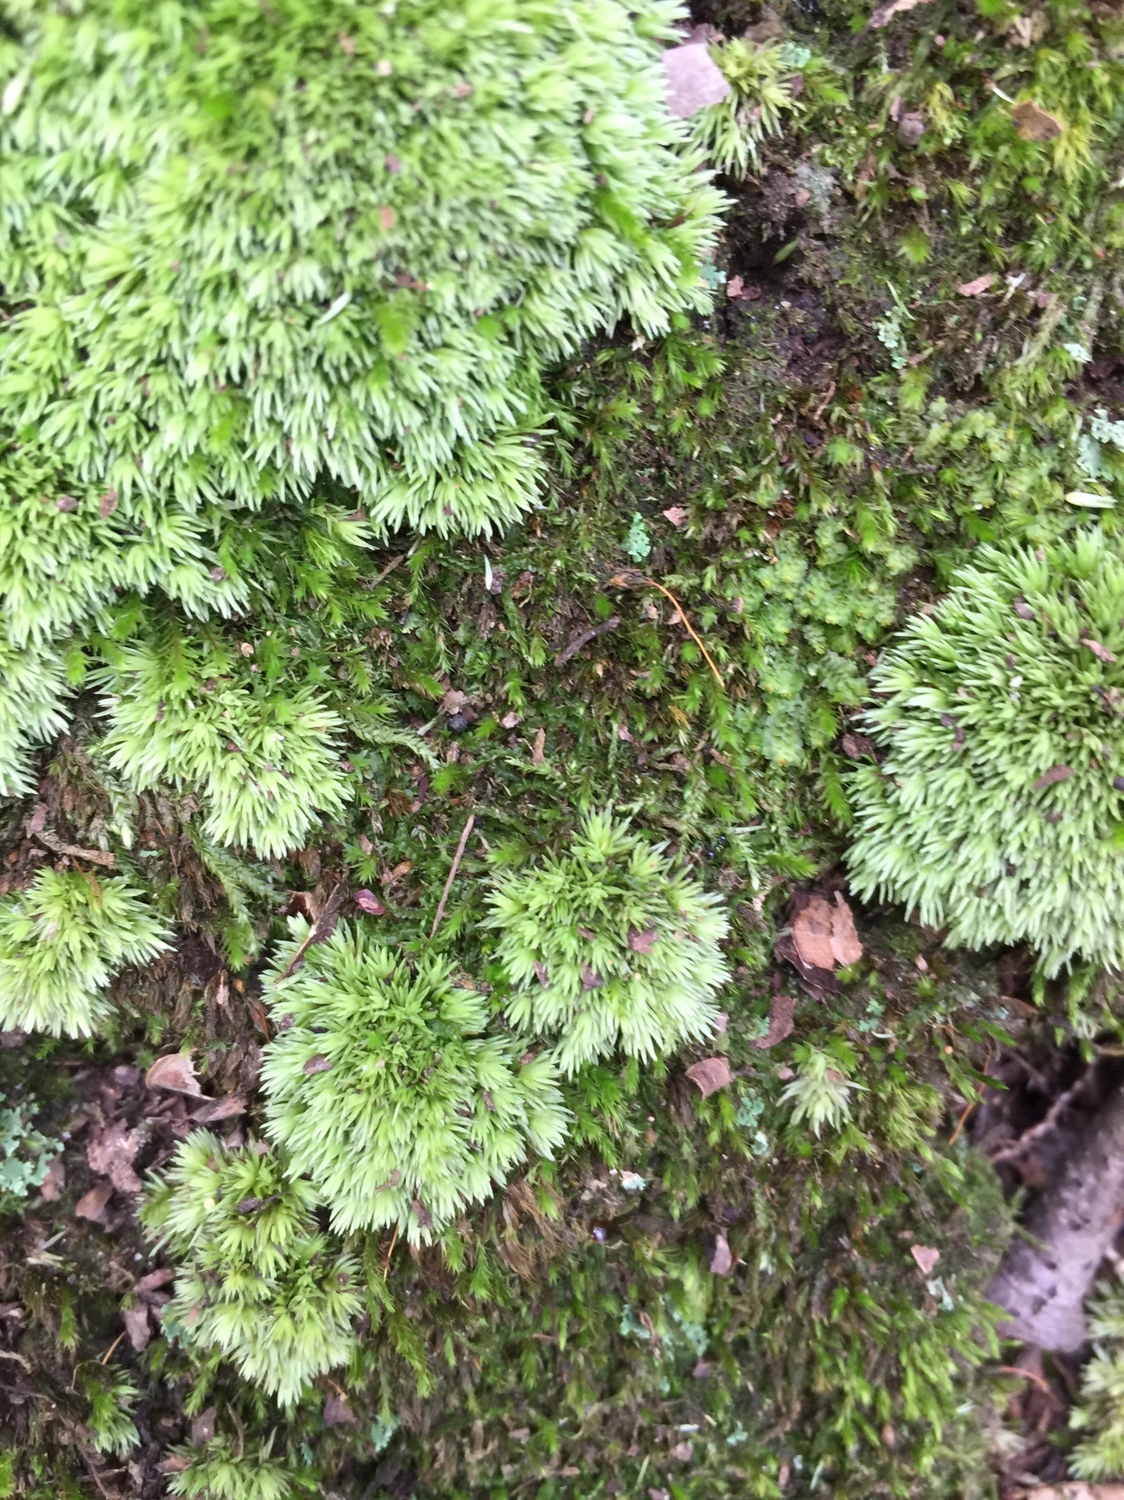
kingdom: Plantae
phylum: Bryophyta
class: Bryopsida
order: Dicranales
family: Leucobryaceae
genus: Leucobryum
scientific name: Leucobryum albidum
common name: White moss
